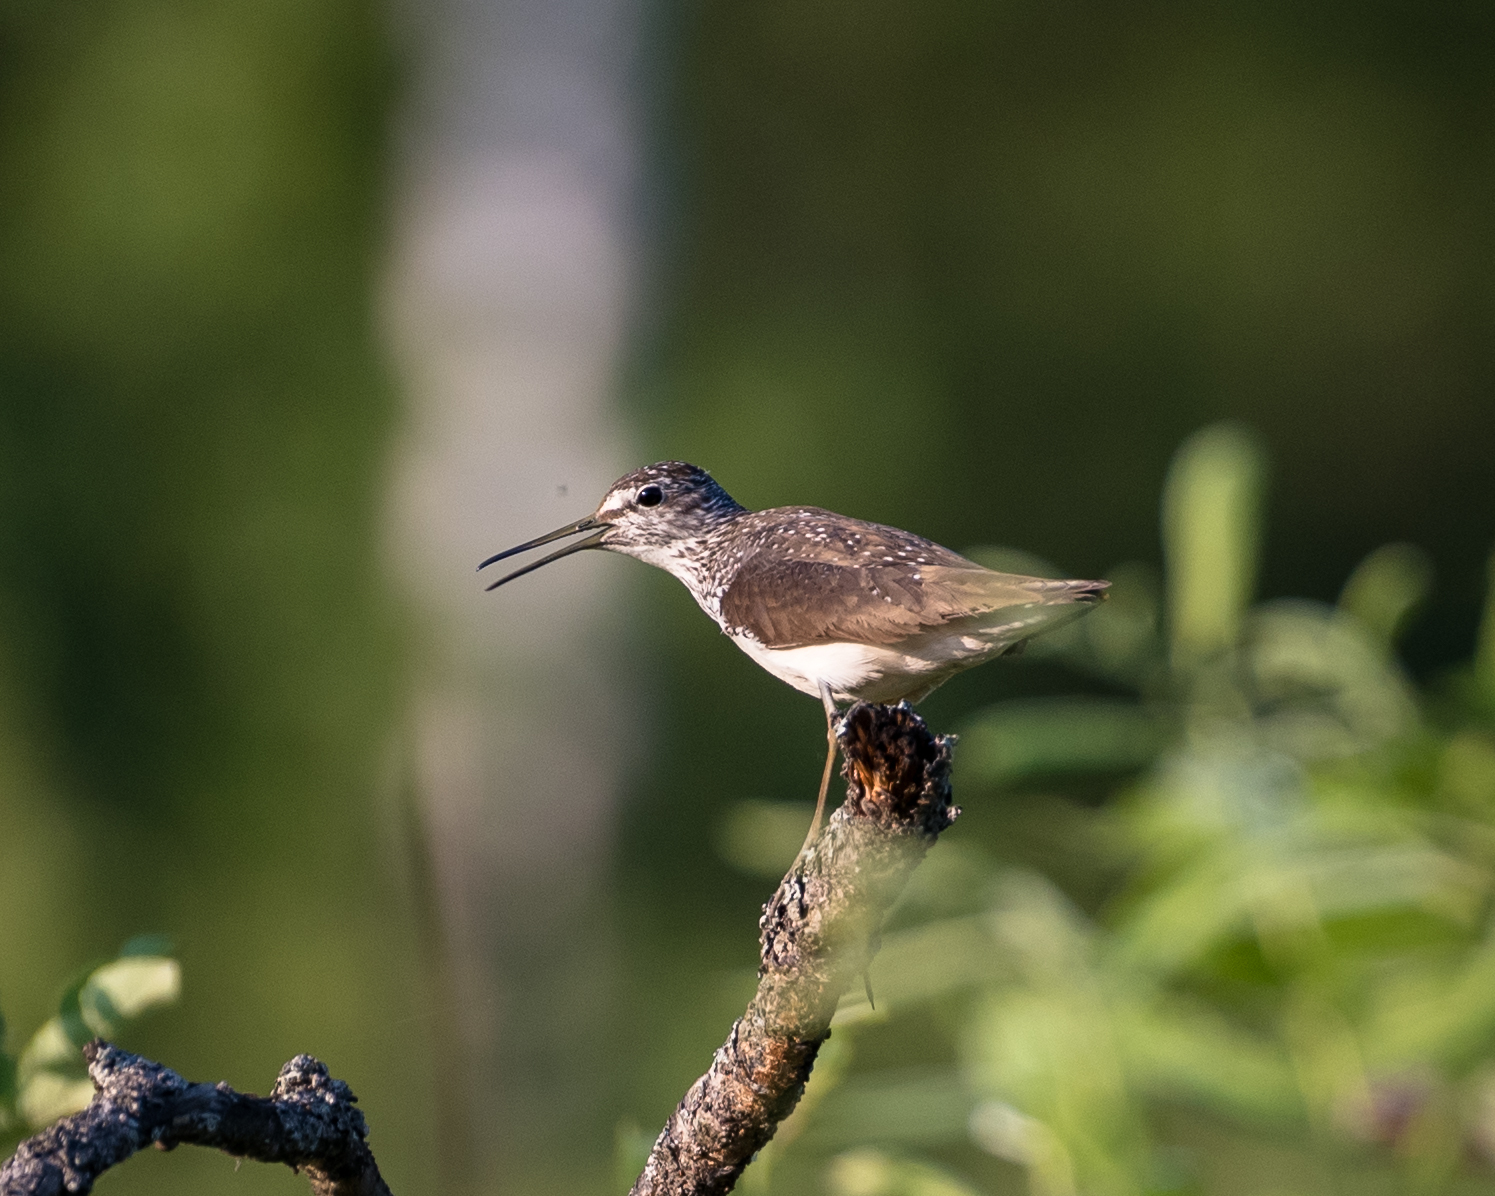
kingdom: Animalia
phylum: Chordata
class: Aves
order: Charadriiformes
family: Scolopacidae
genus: Tringa
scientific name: Tringa ochropus
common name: Green sandpiper
